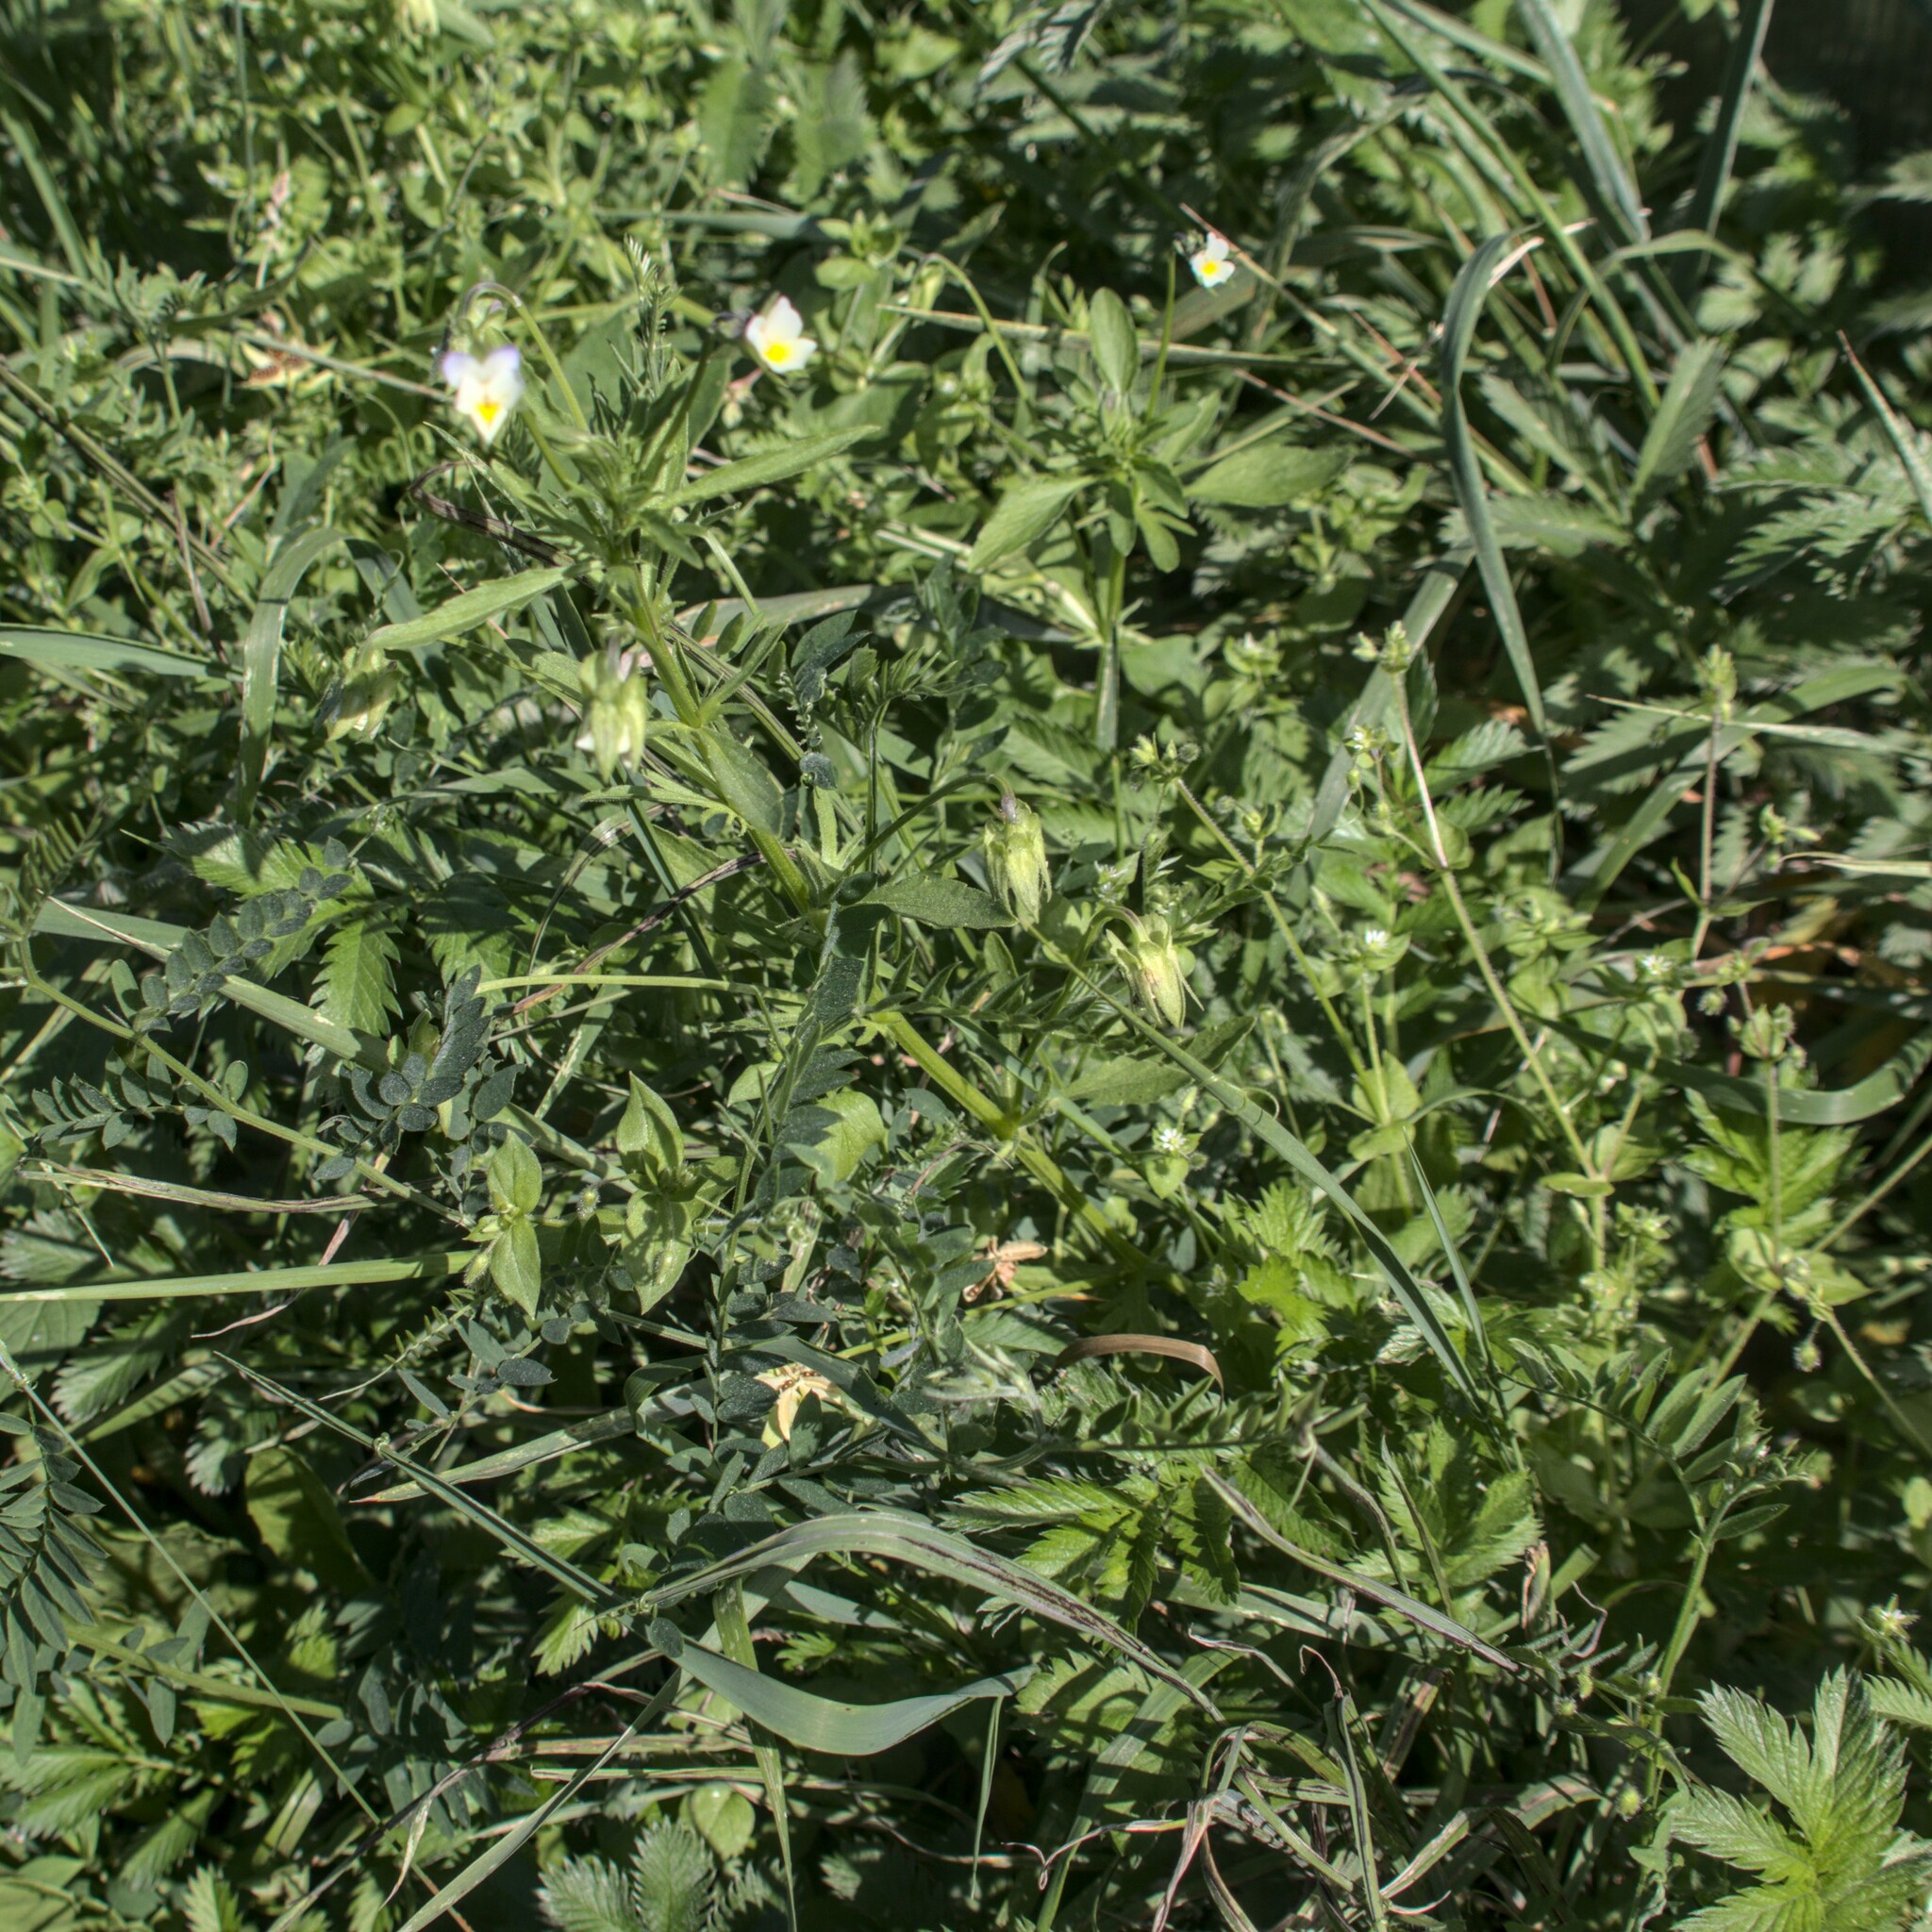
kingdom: Plantae
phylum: Tracheophyta
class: Magnoliopsida
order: Malpighiales
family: Violaceae
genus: Viola
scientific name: Viola arvensis
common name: Field pansy
